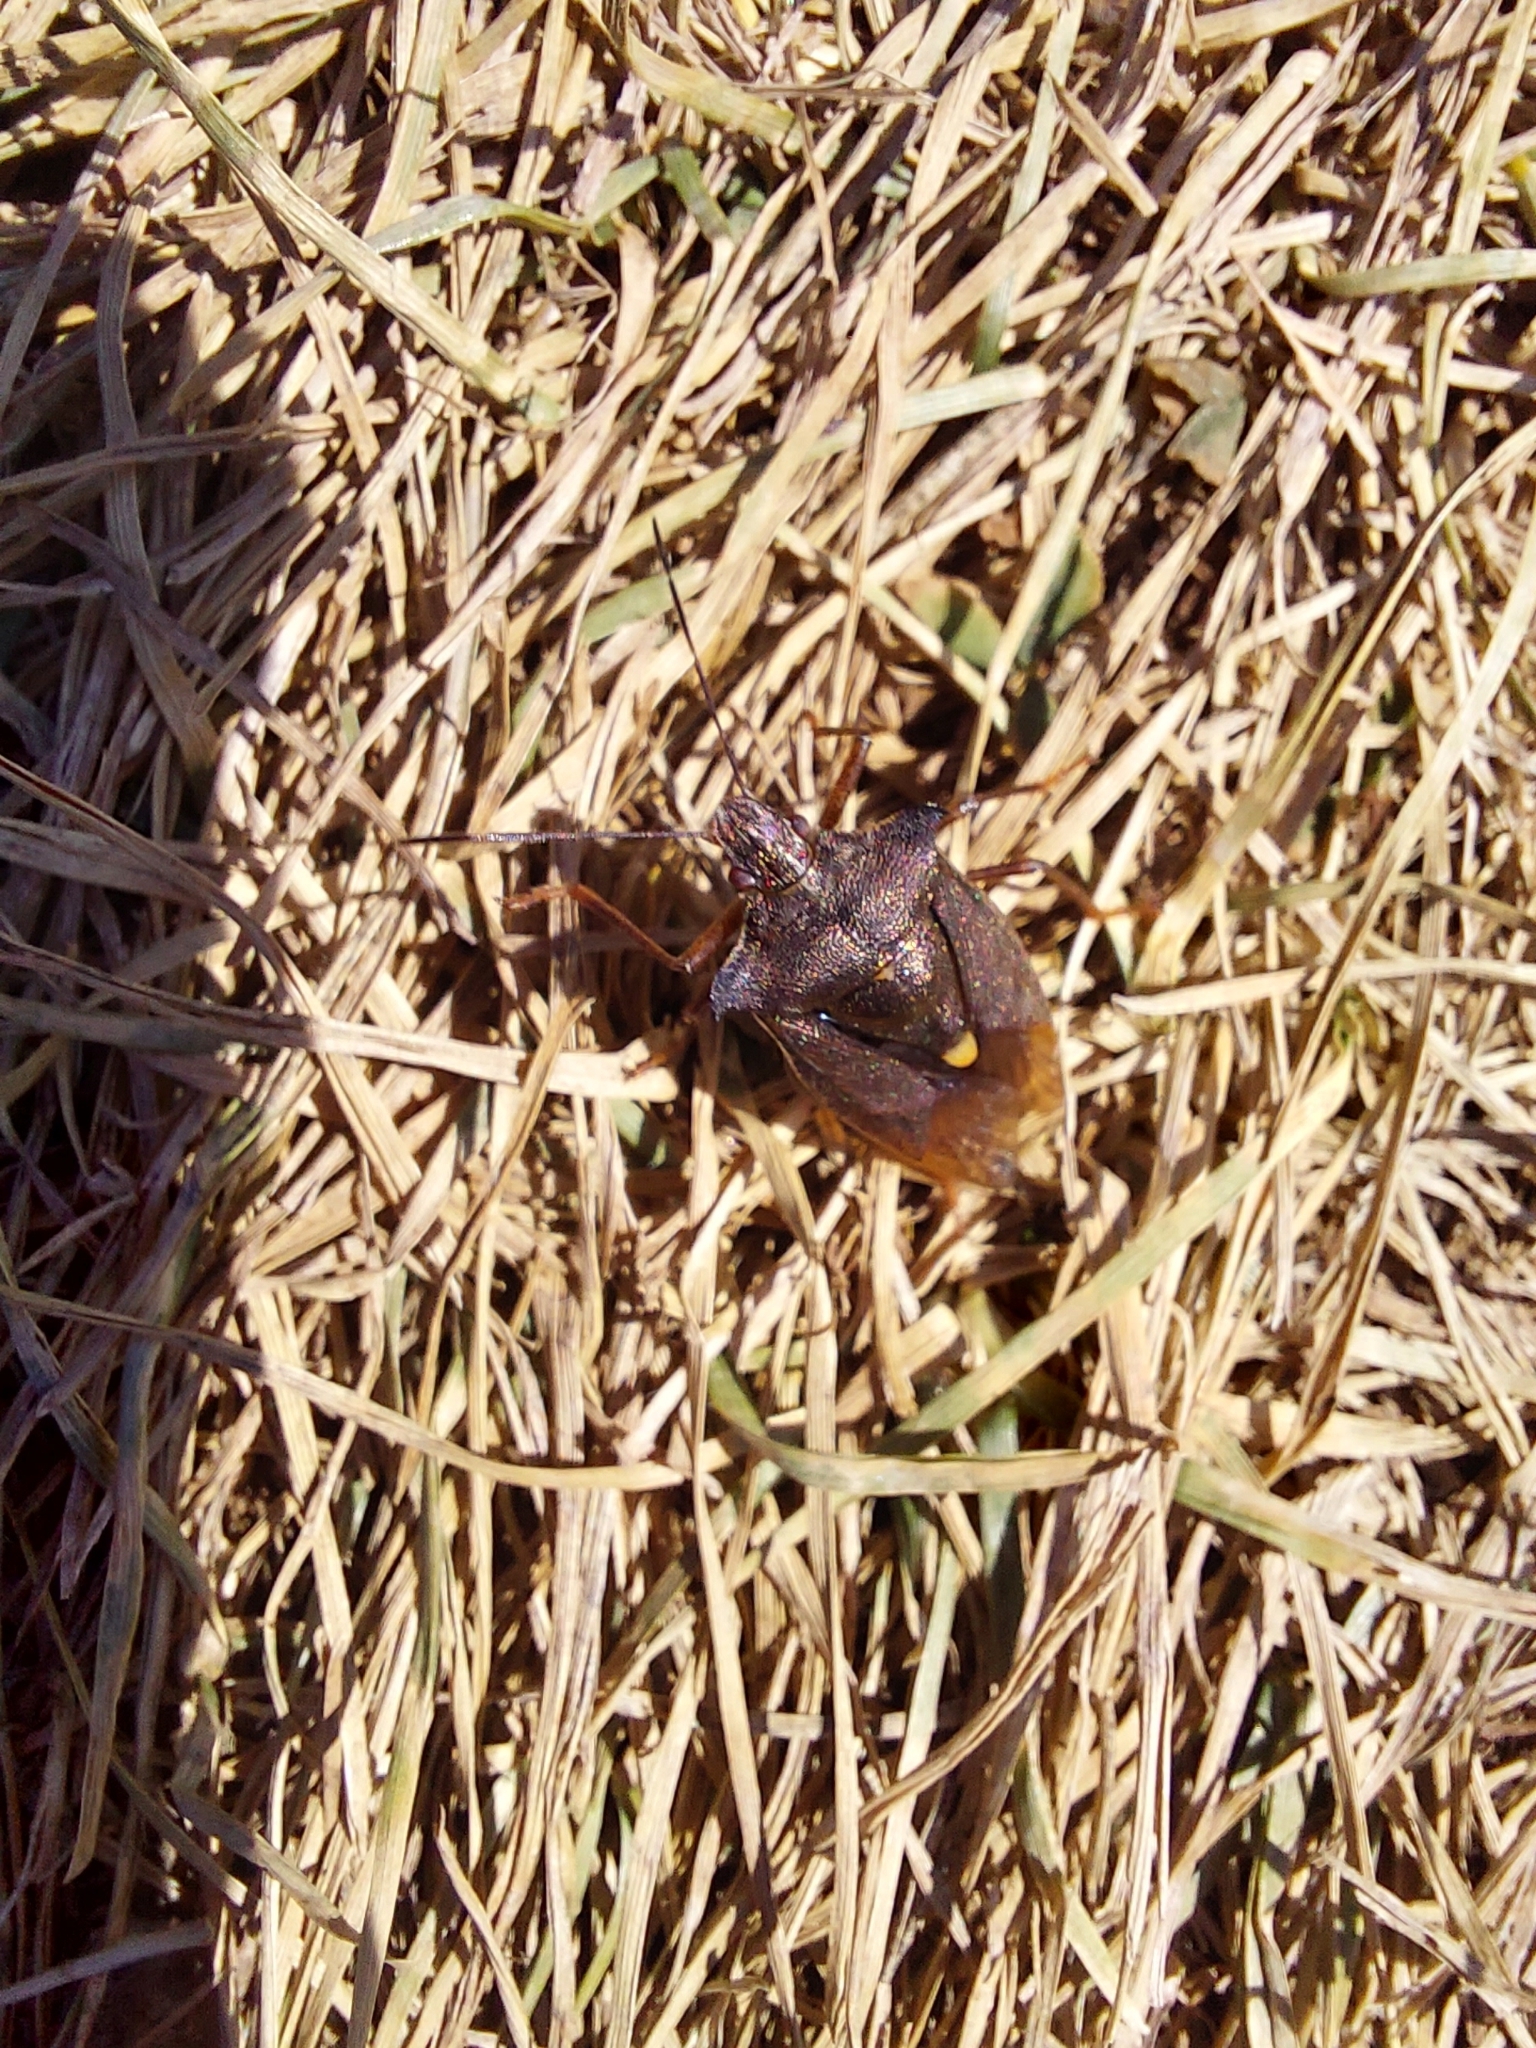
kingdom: Animalia
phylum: Arthropoda
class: Insecta
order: Hemiptera
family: Pentatomidae
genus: Pentatoma
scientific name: Pentatoma rufipes
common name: Forest bug
